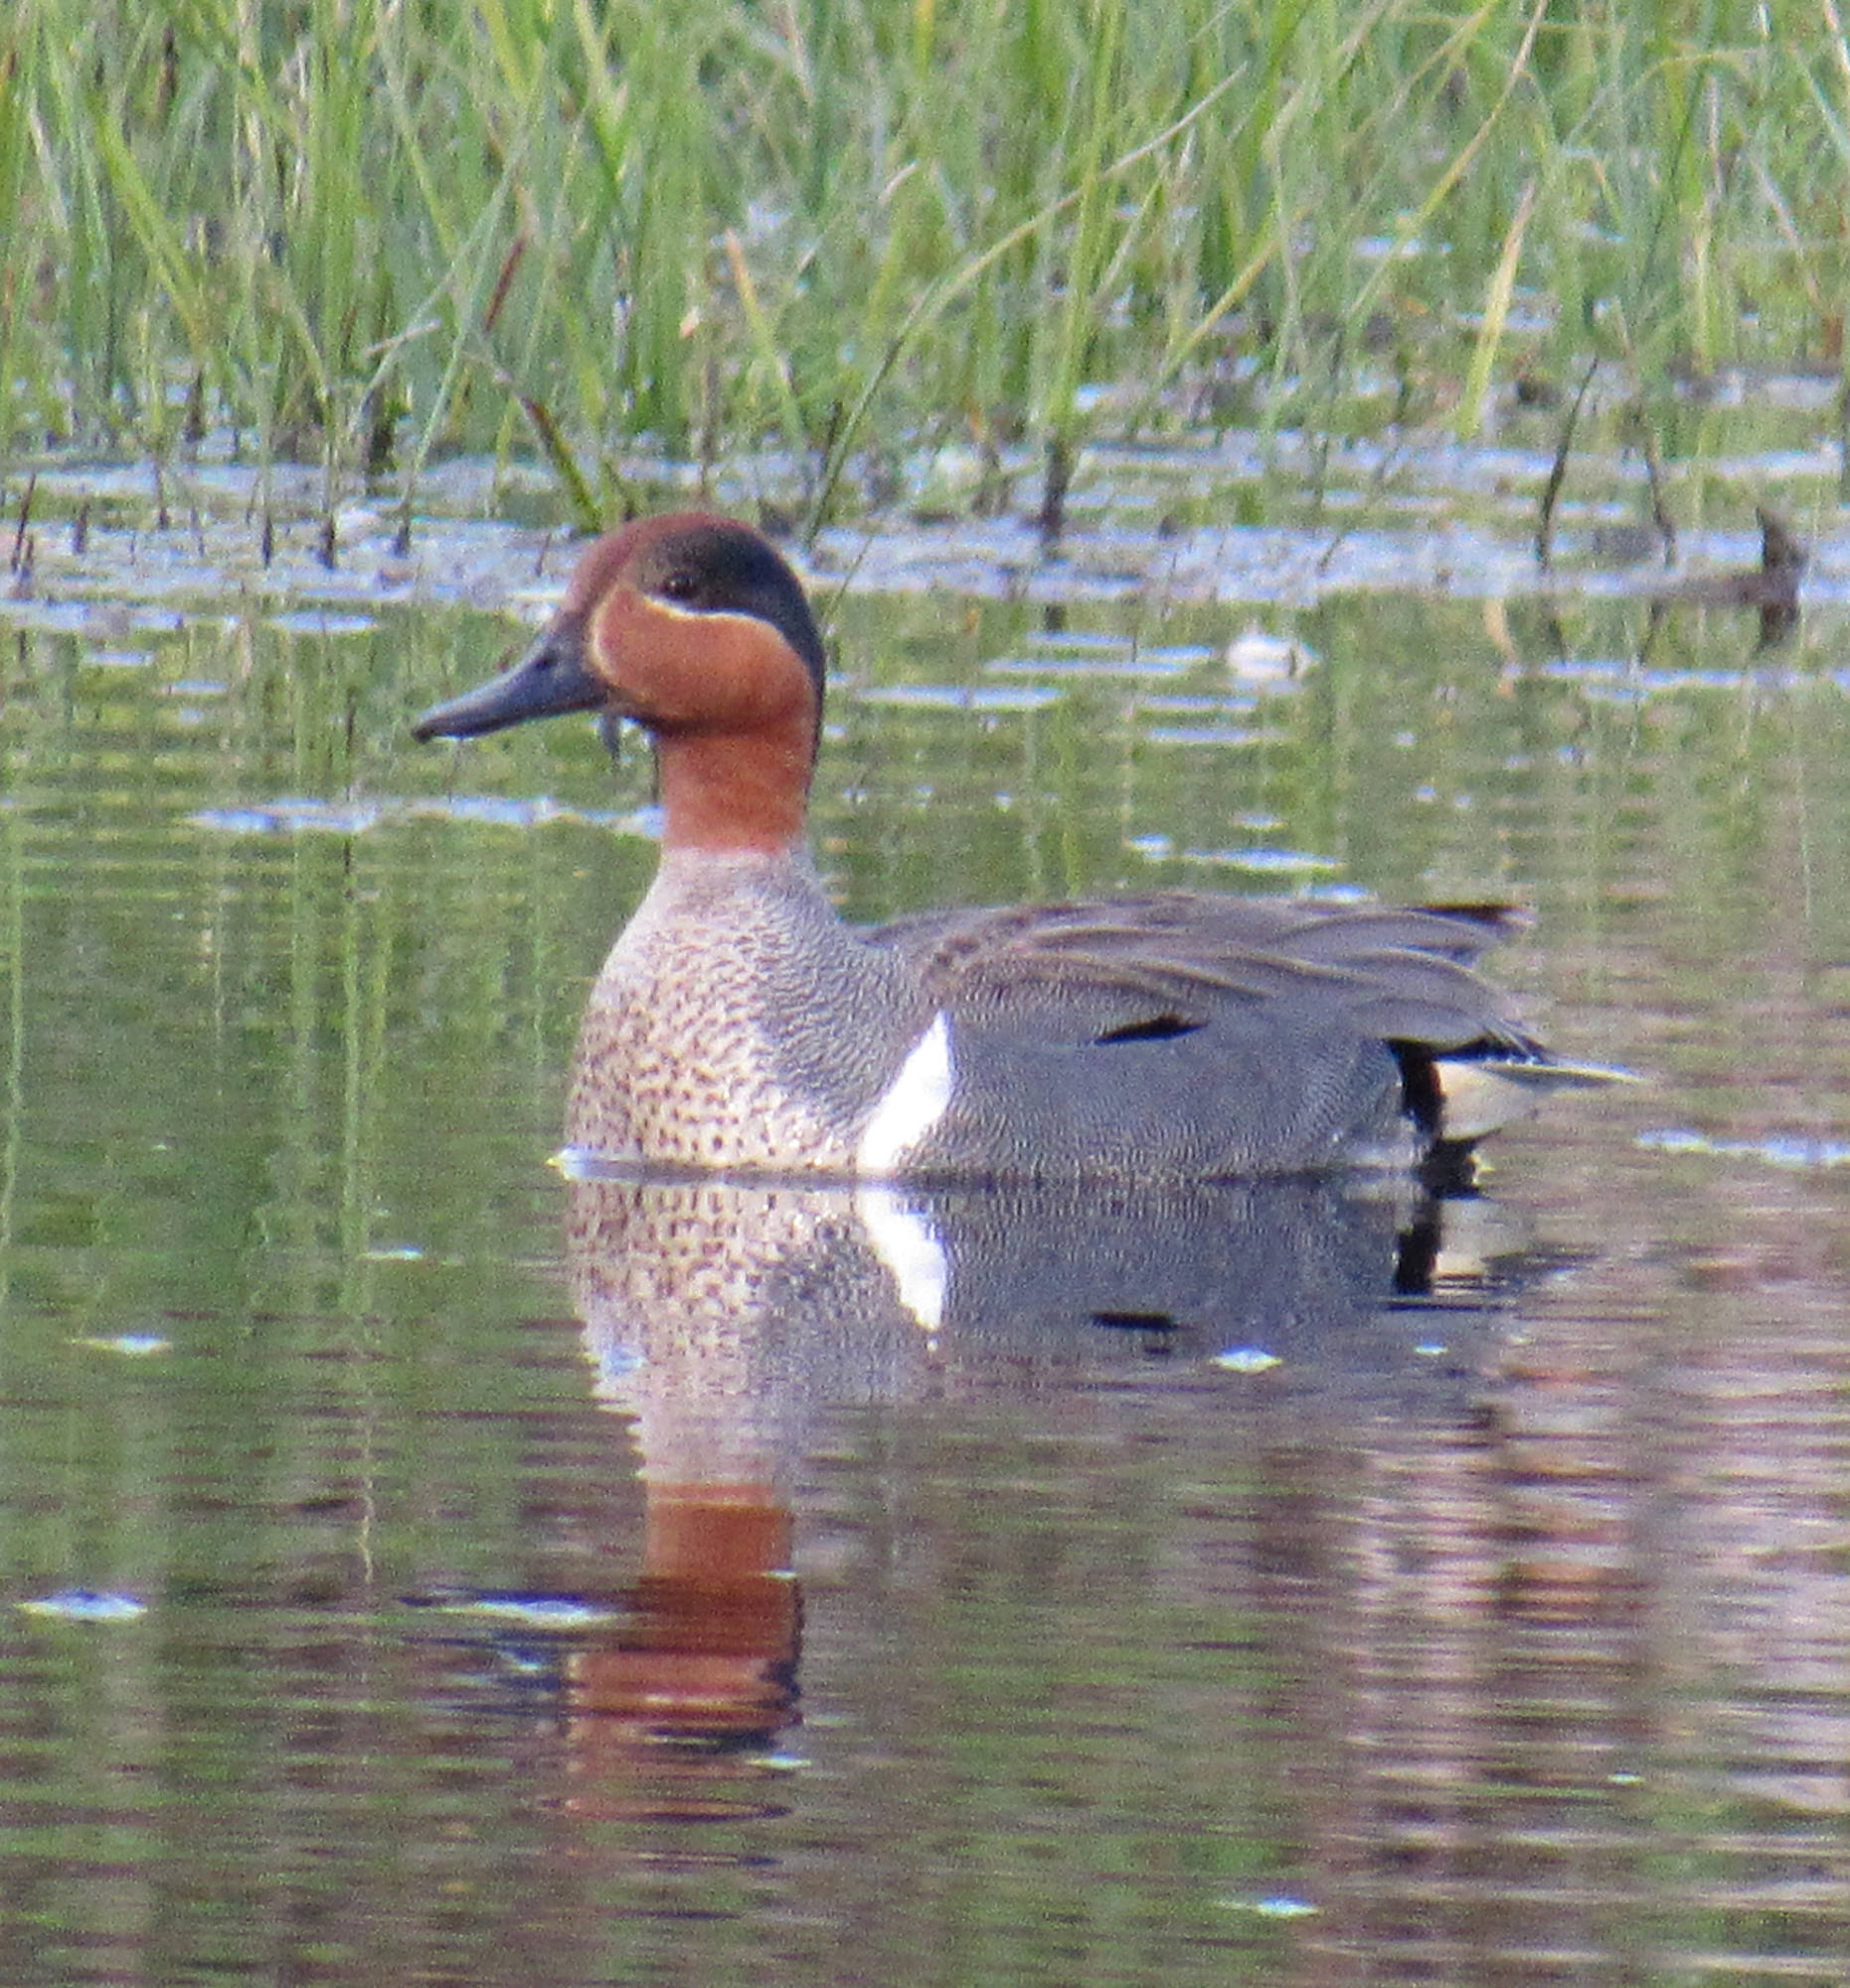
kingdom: Animalia
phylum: Chordata
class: Aves
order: Anseriformes
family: Anatidae
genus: Anas
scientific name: Anas crecca
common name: Eurasian teal
